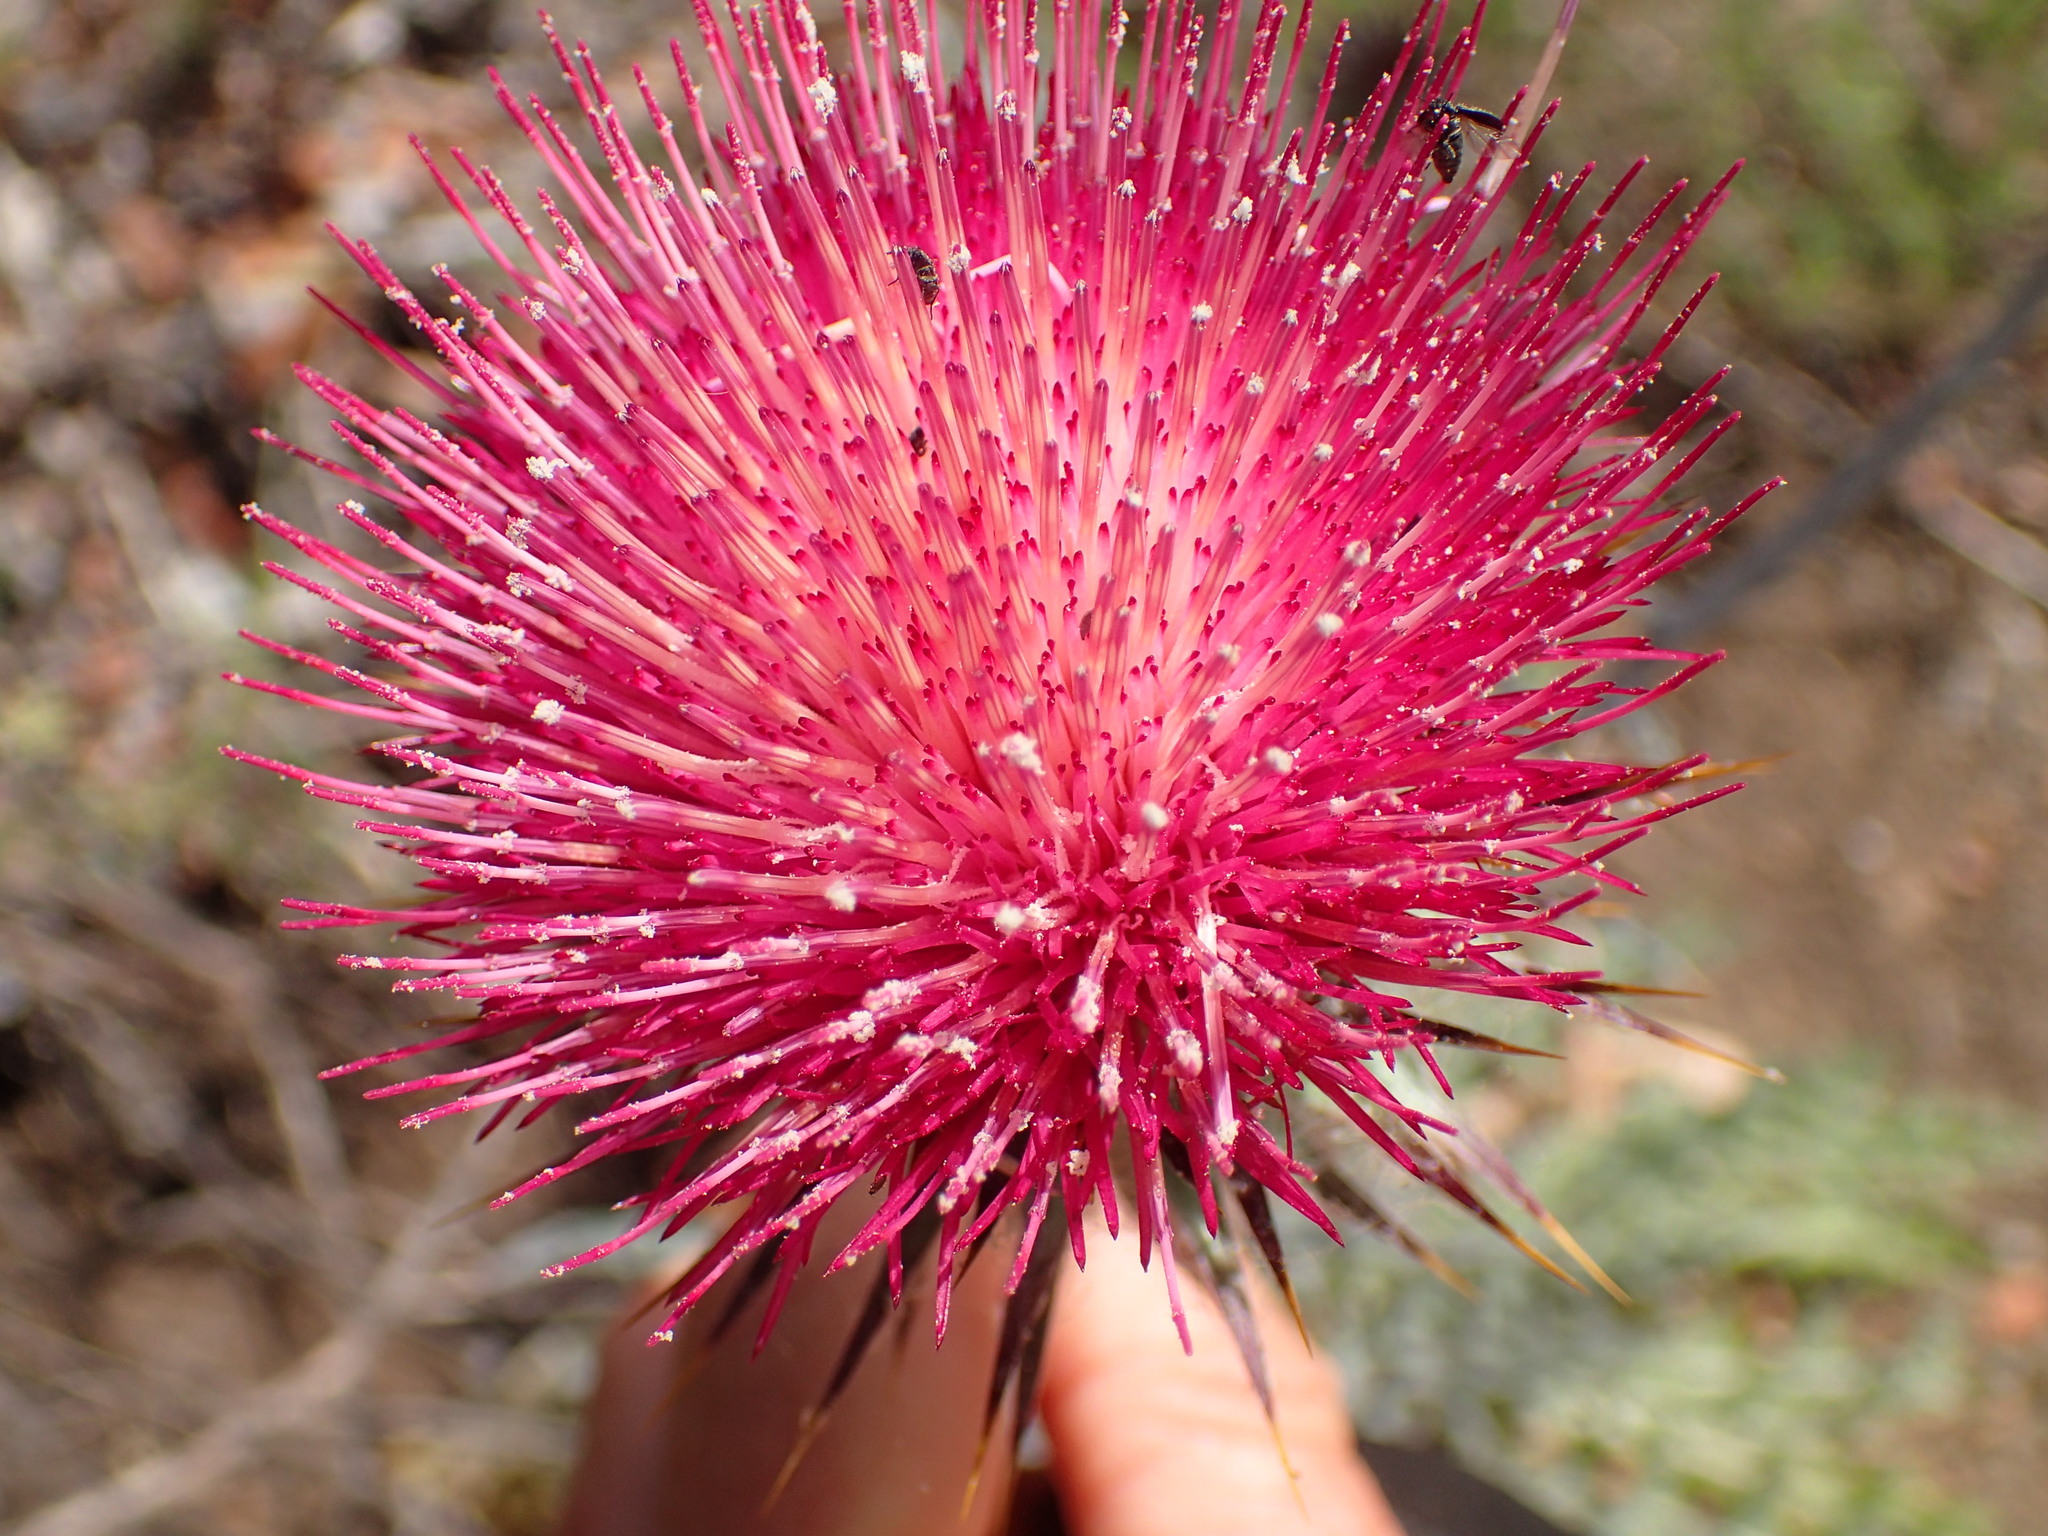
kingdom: Plantae
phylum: Tracheophyta
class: Magnoliopsida
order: Asterales
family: Asteraceae
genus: Cirsium
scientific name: Cirsium occidentale
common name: Western thistle
